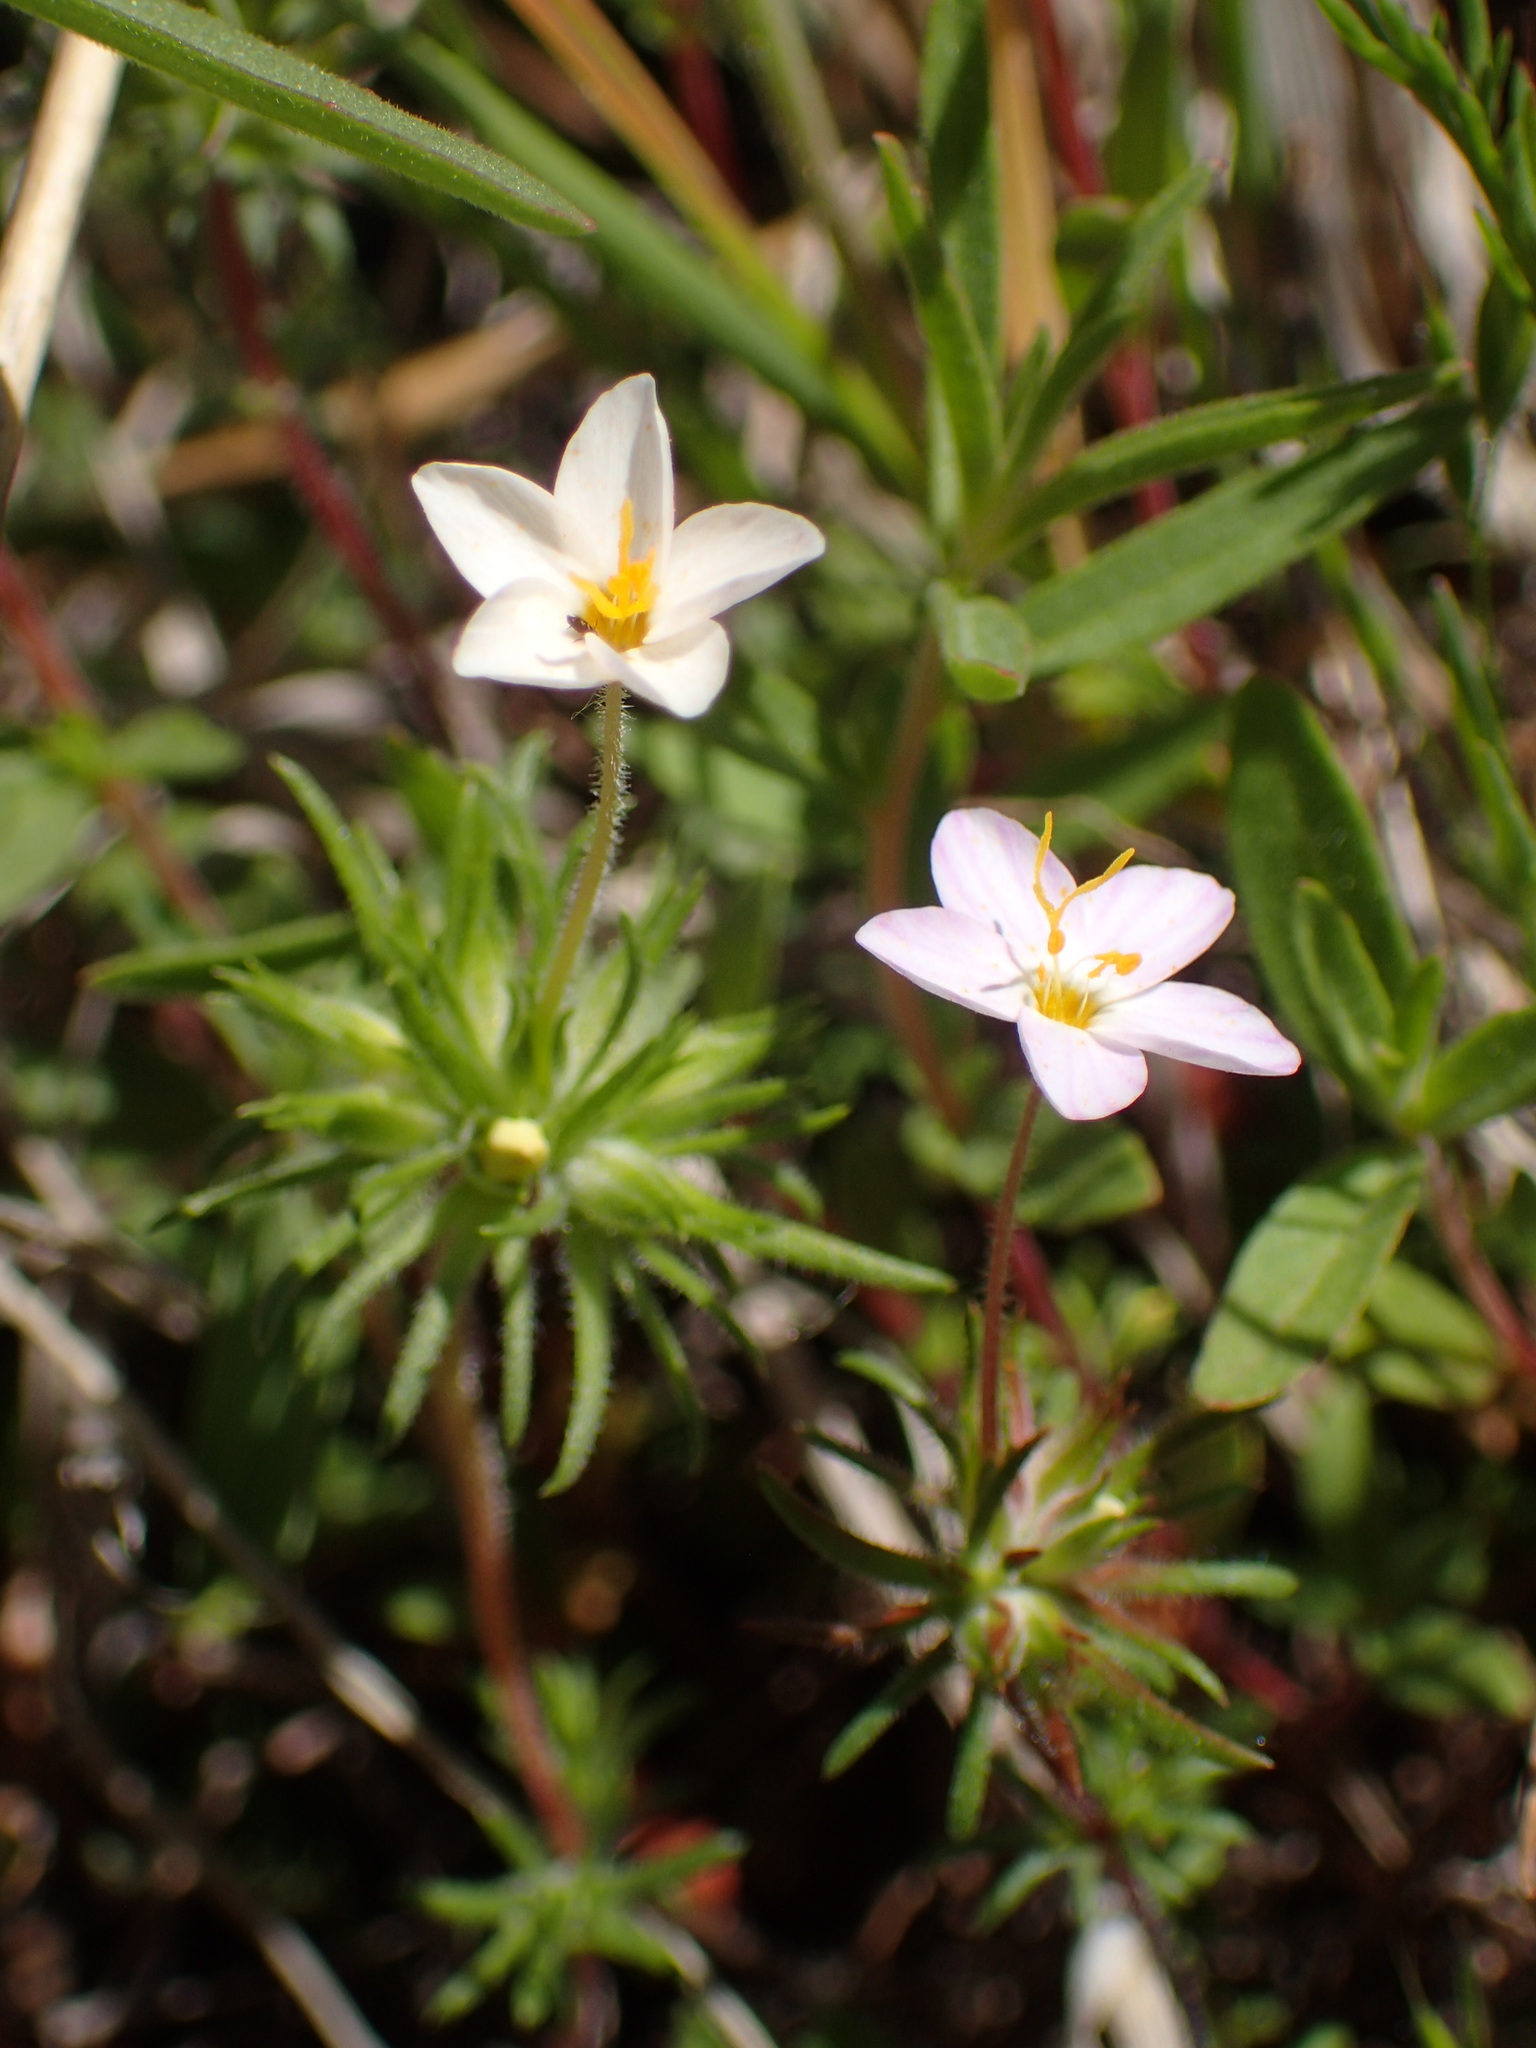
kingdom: Plantae
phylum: Tracheophyta
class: Magnoliopsida
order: Ericales
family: Polemoniaceae
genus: Leptosiphon
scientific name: Leptosiphon parviflorus
